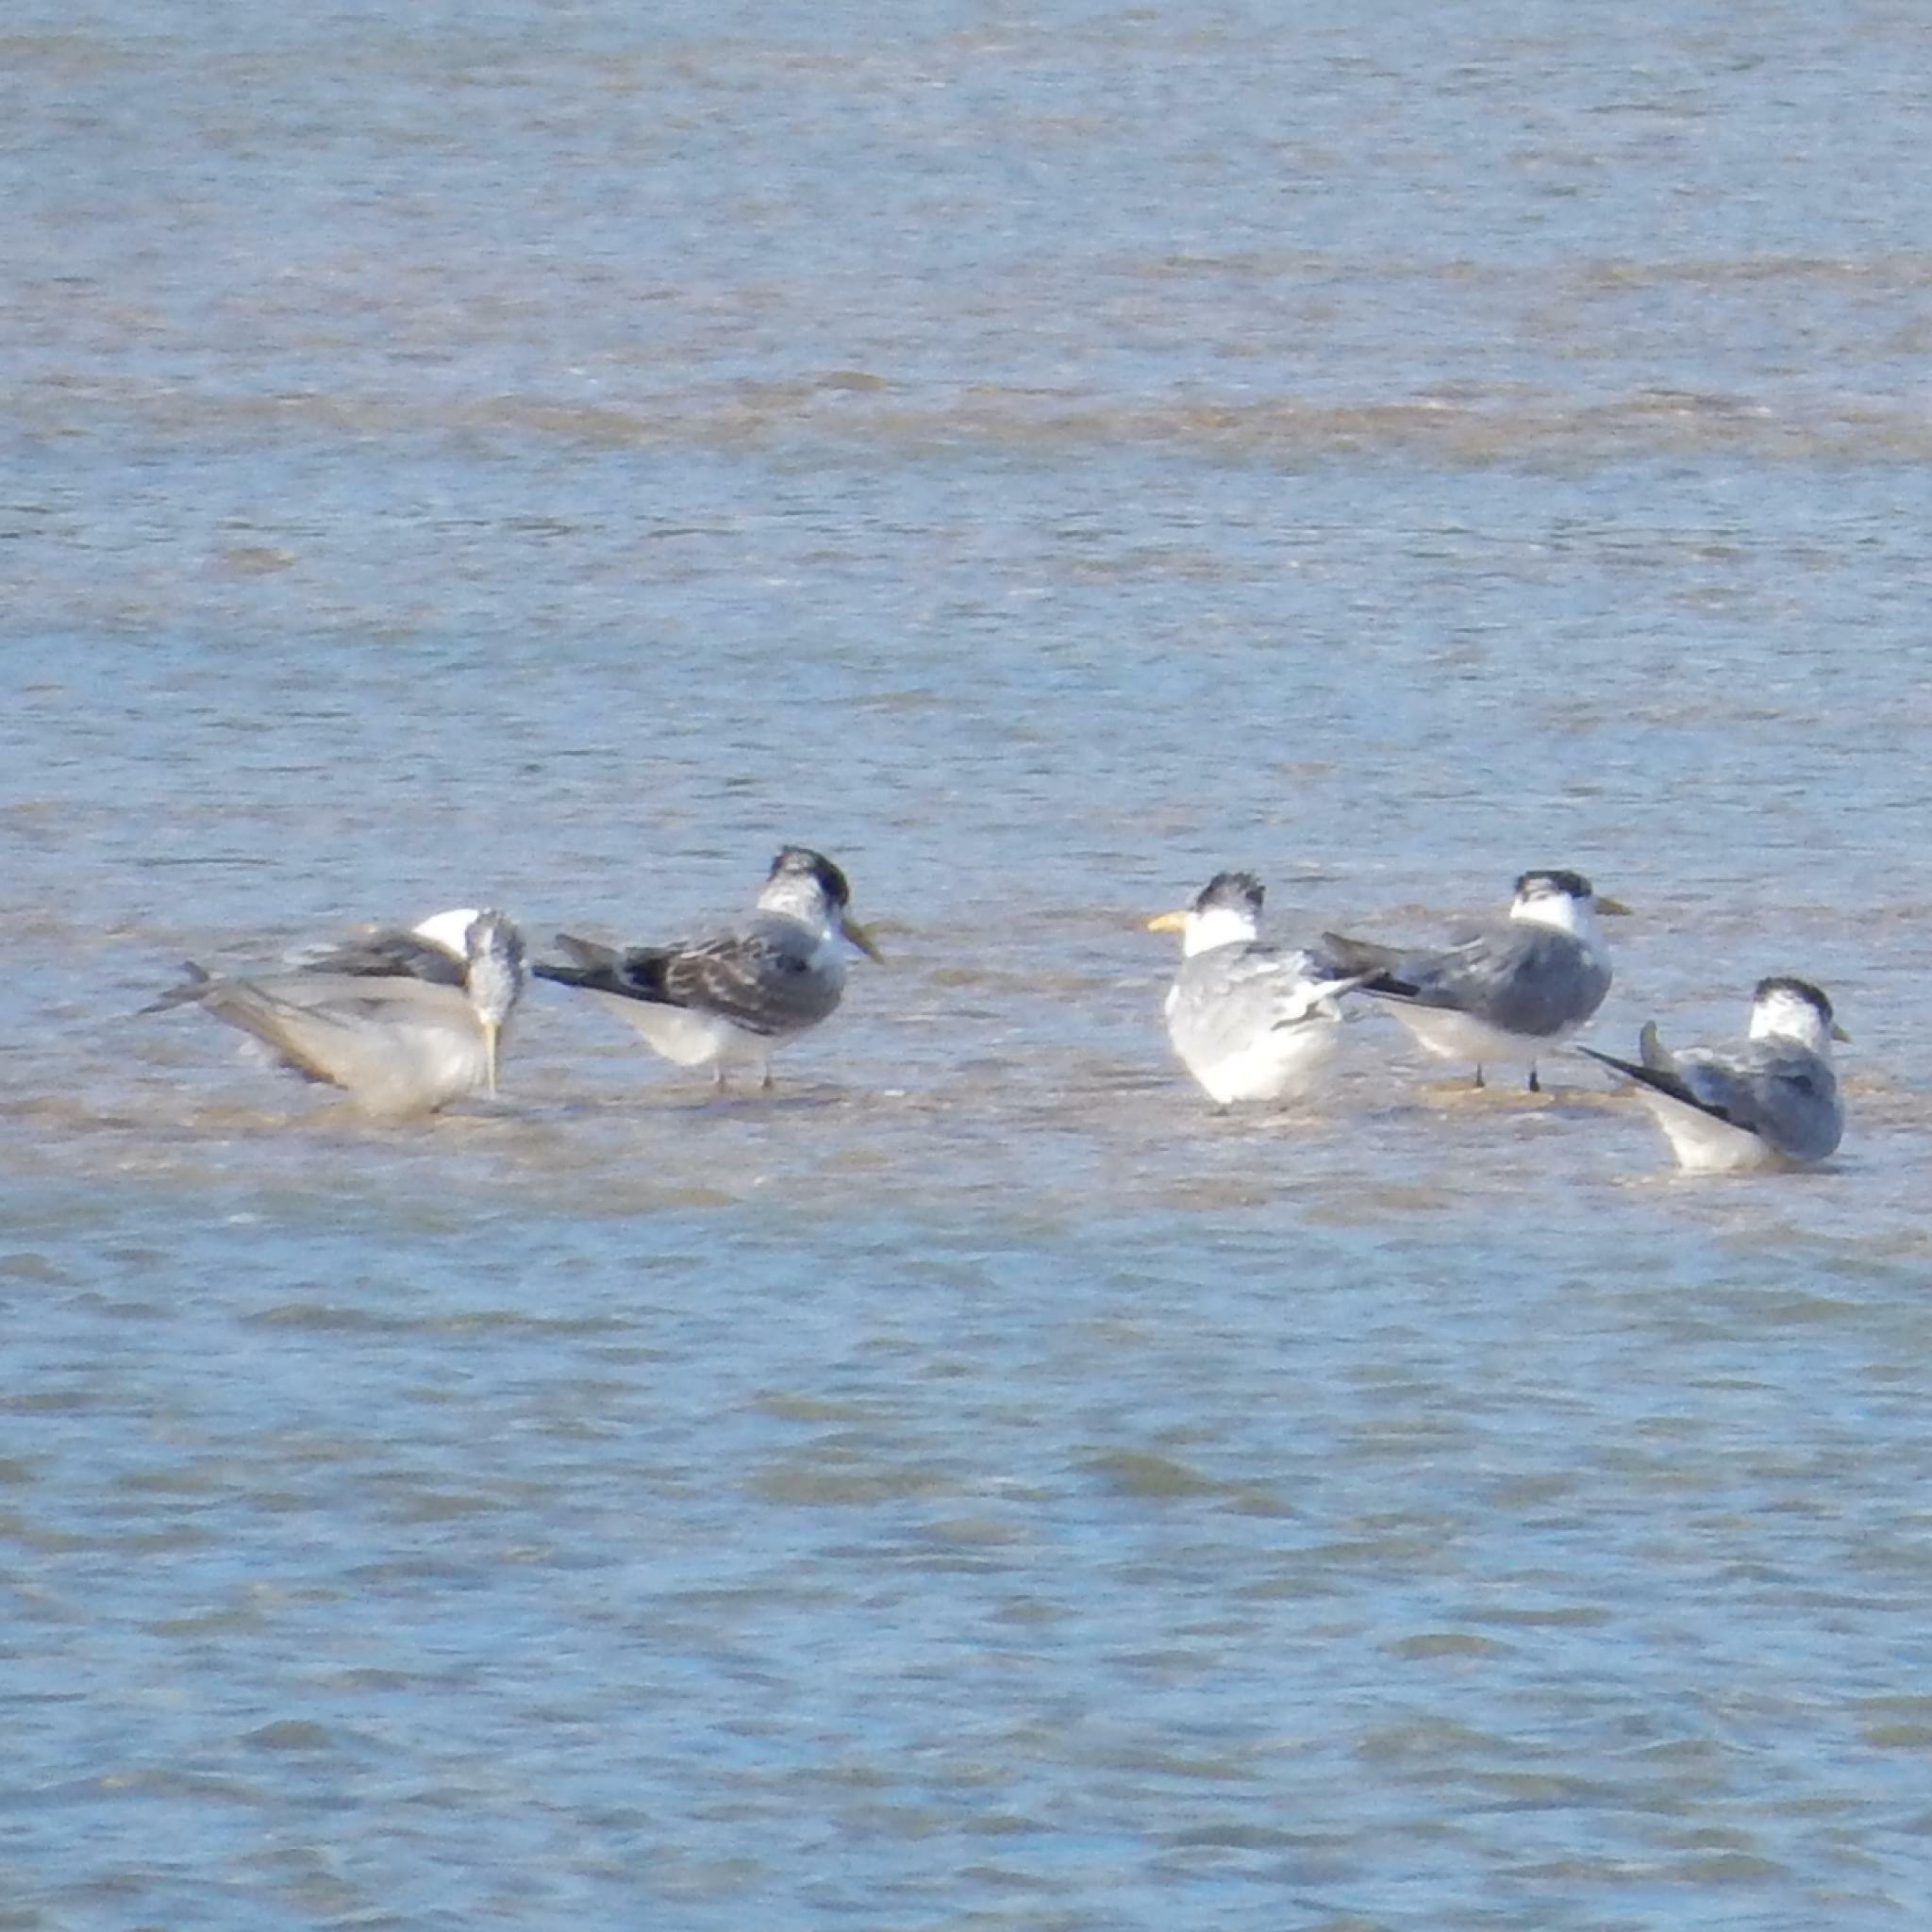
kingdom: Animalia
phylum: Chordata
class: Aves
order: Charadriiformes
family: Laridae
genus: Thalasseus
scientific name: Thalasseus bergii
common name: Greater crested tern
